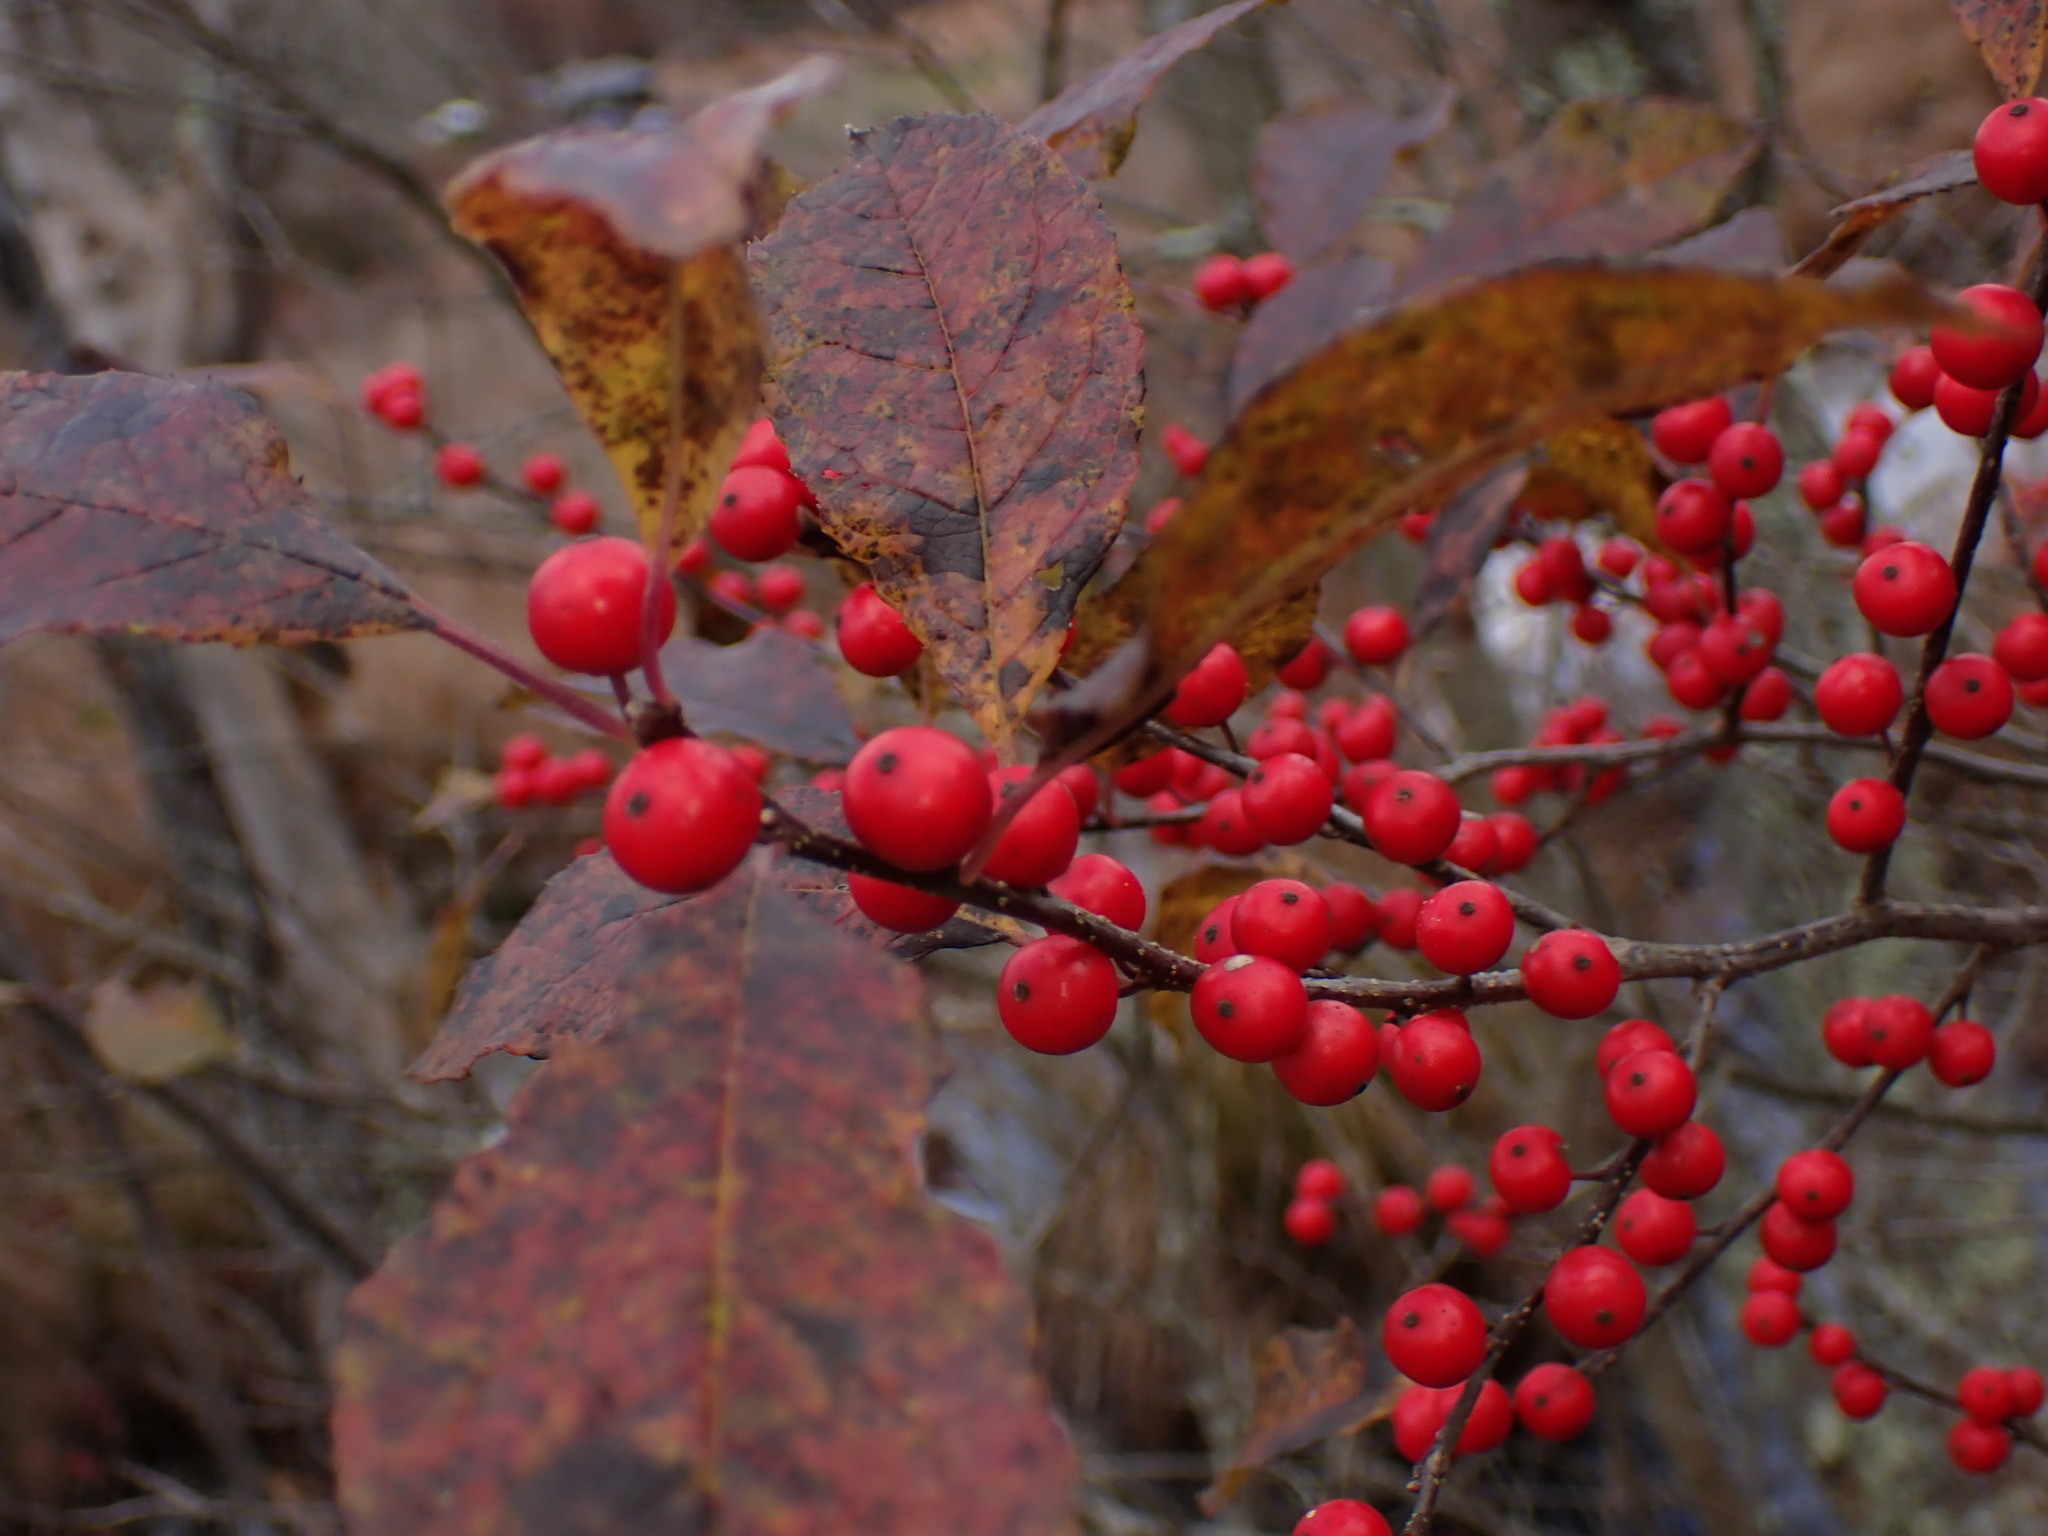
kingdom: Plantae
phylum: Tracheophyta
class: Magnoliopsida
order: Aquifoliales
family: Aquifoliaceae
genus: Ilex
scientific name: Ilex verticillata
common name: Virginia winterberry
